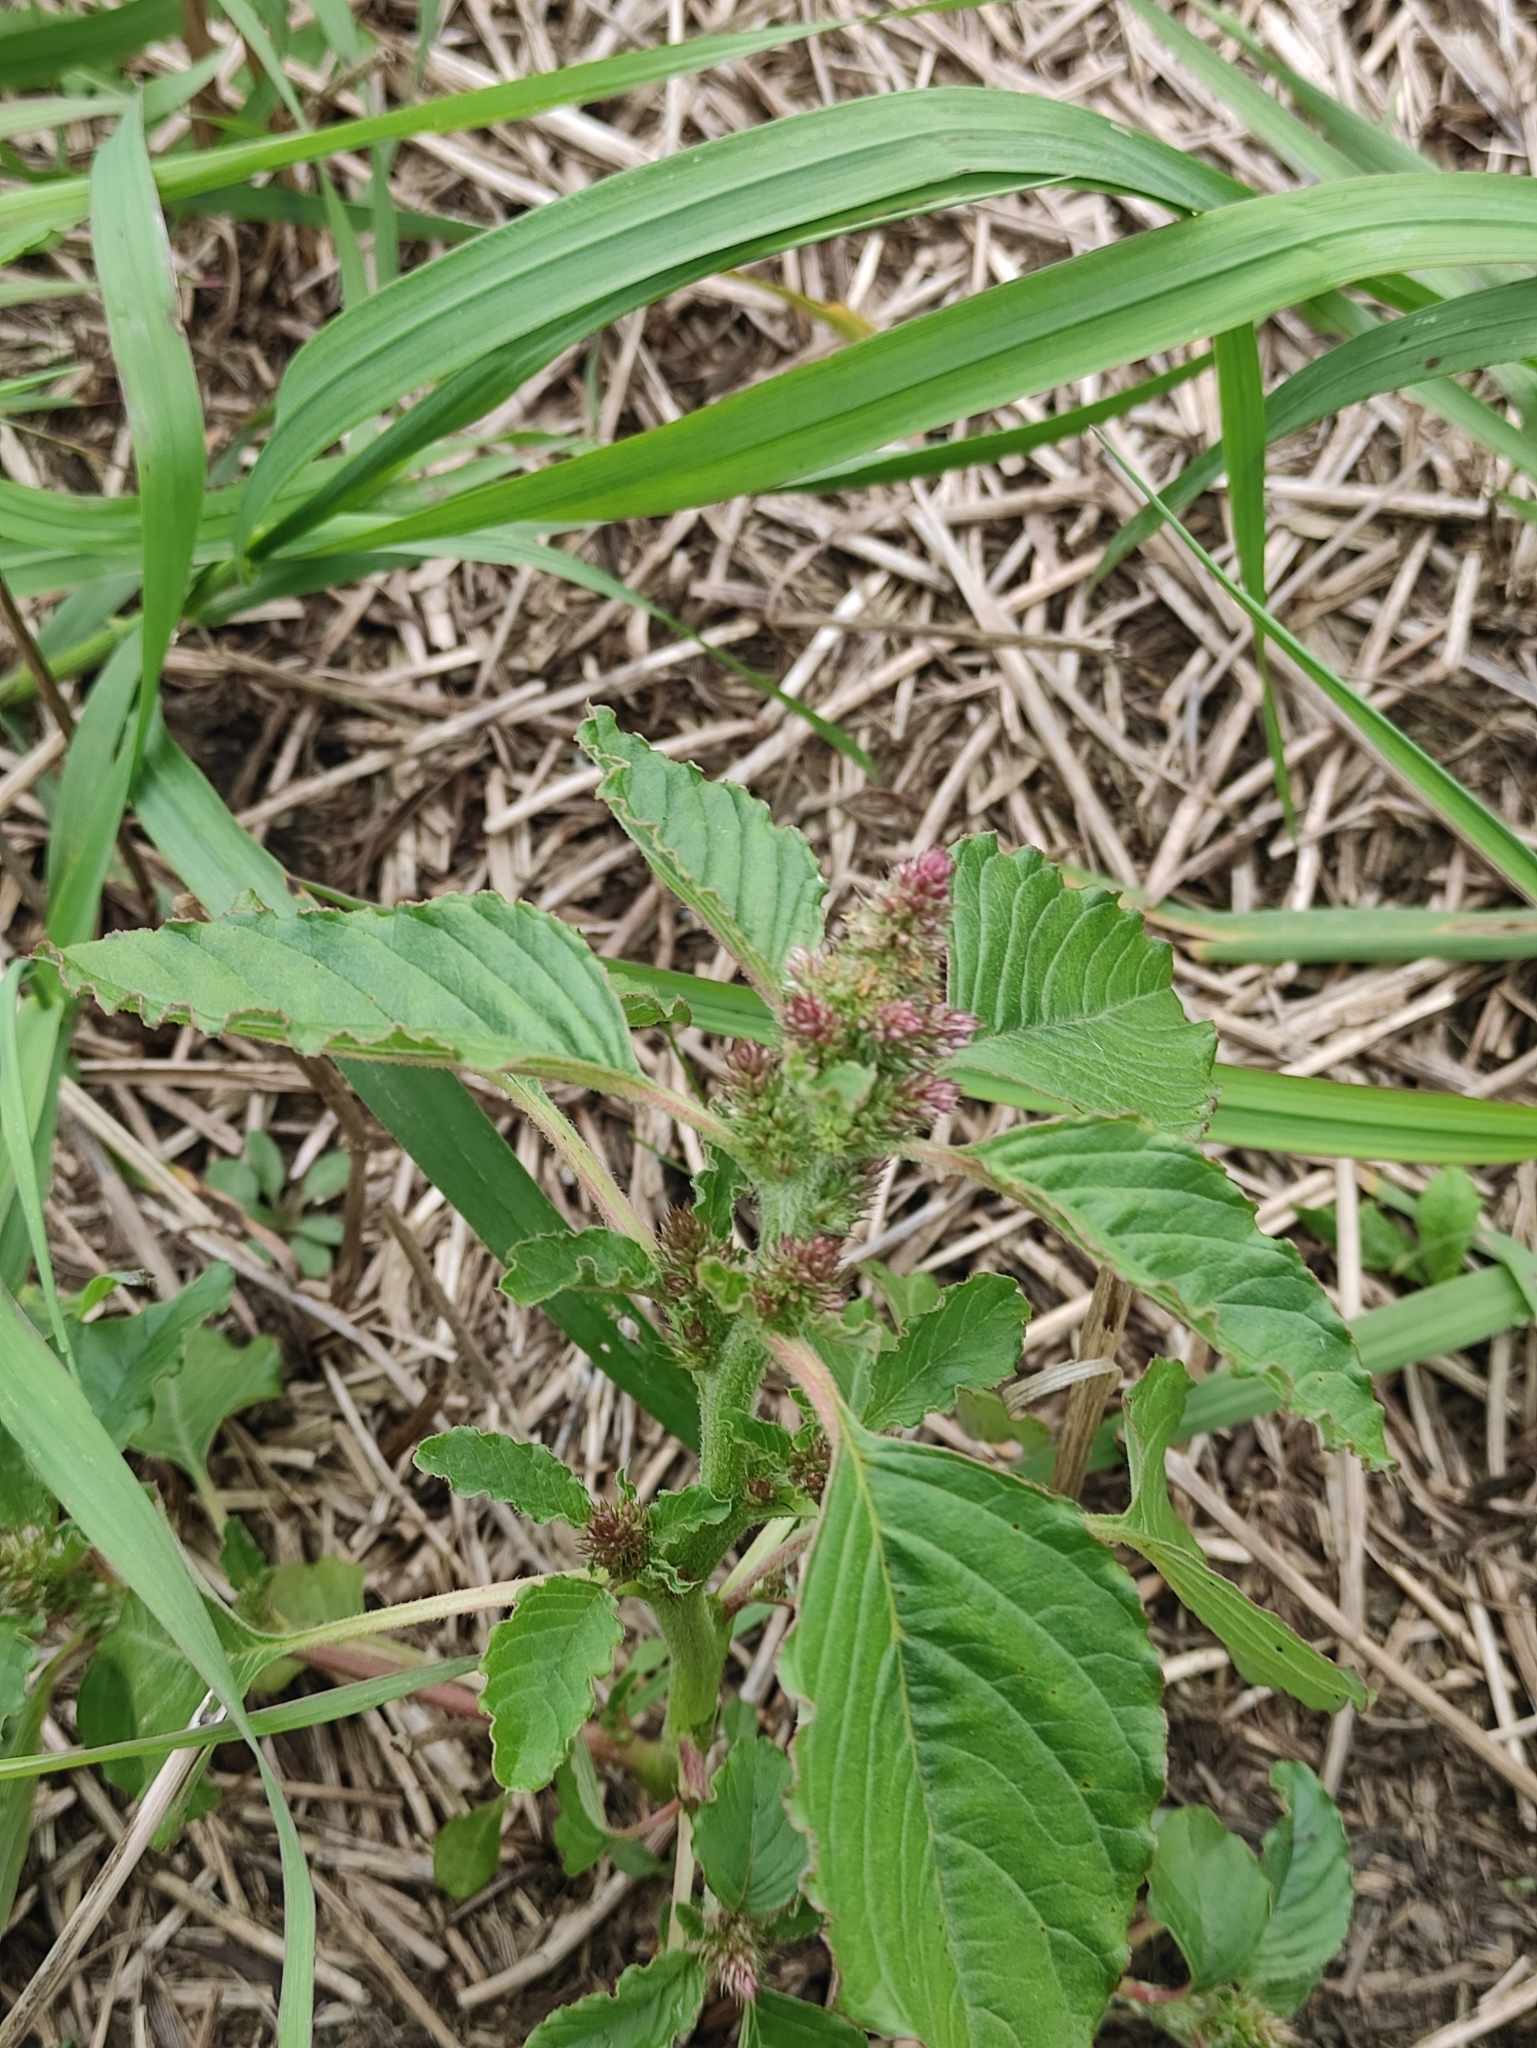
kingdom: Plantae
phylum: Tracheophyta
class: Magnoliopsida
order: Caryophyllales
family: Amaranthaceae
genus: Amaranthus
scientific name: Amaranthus retroflexus
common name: Redroot amaranth
